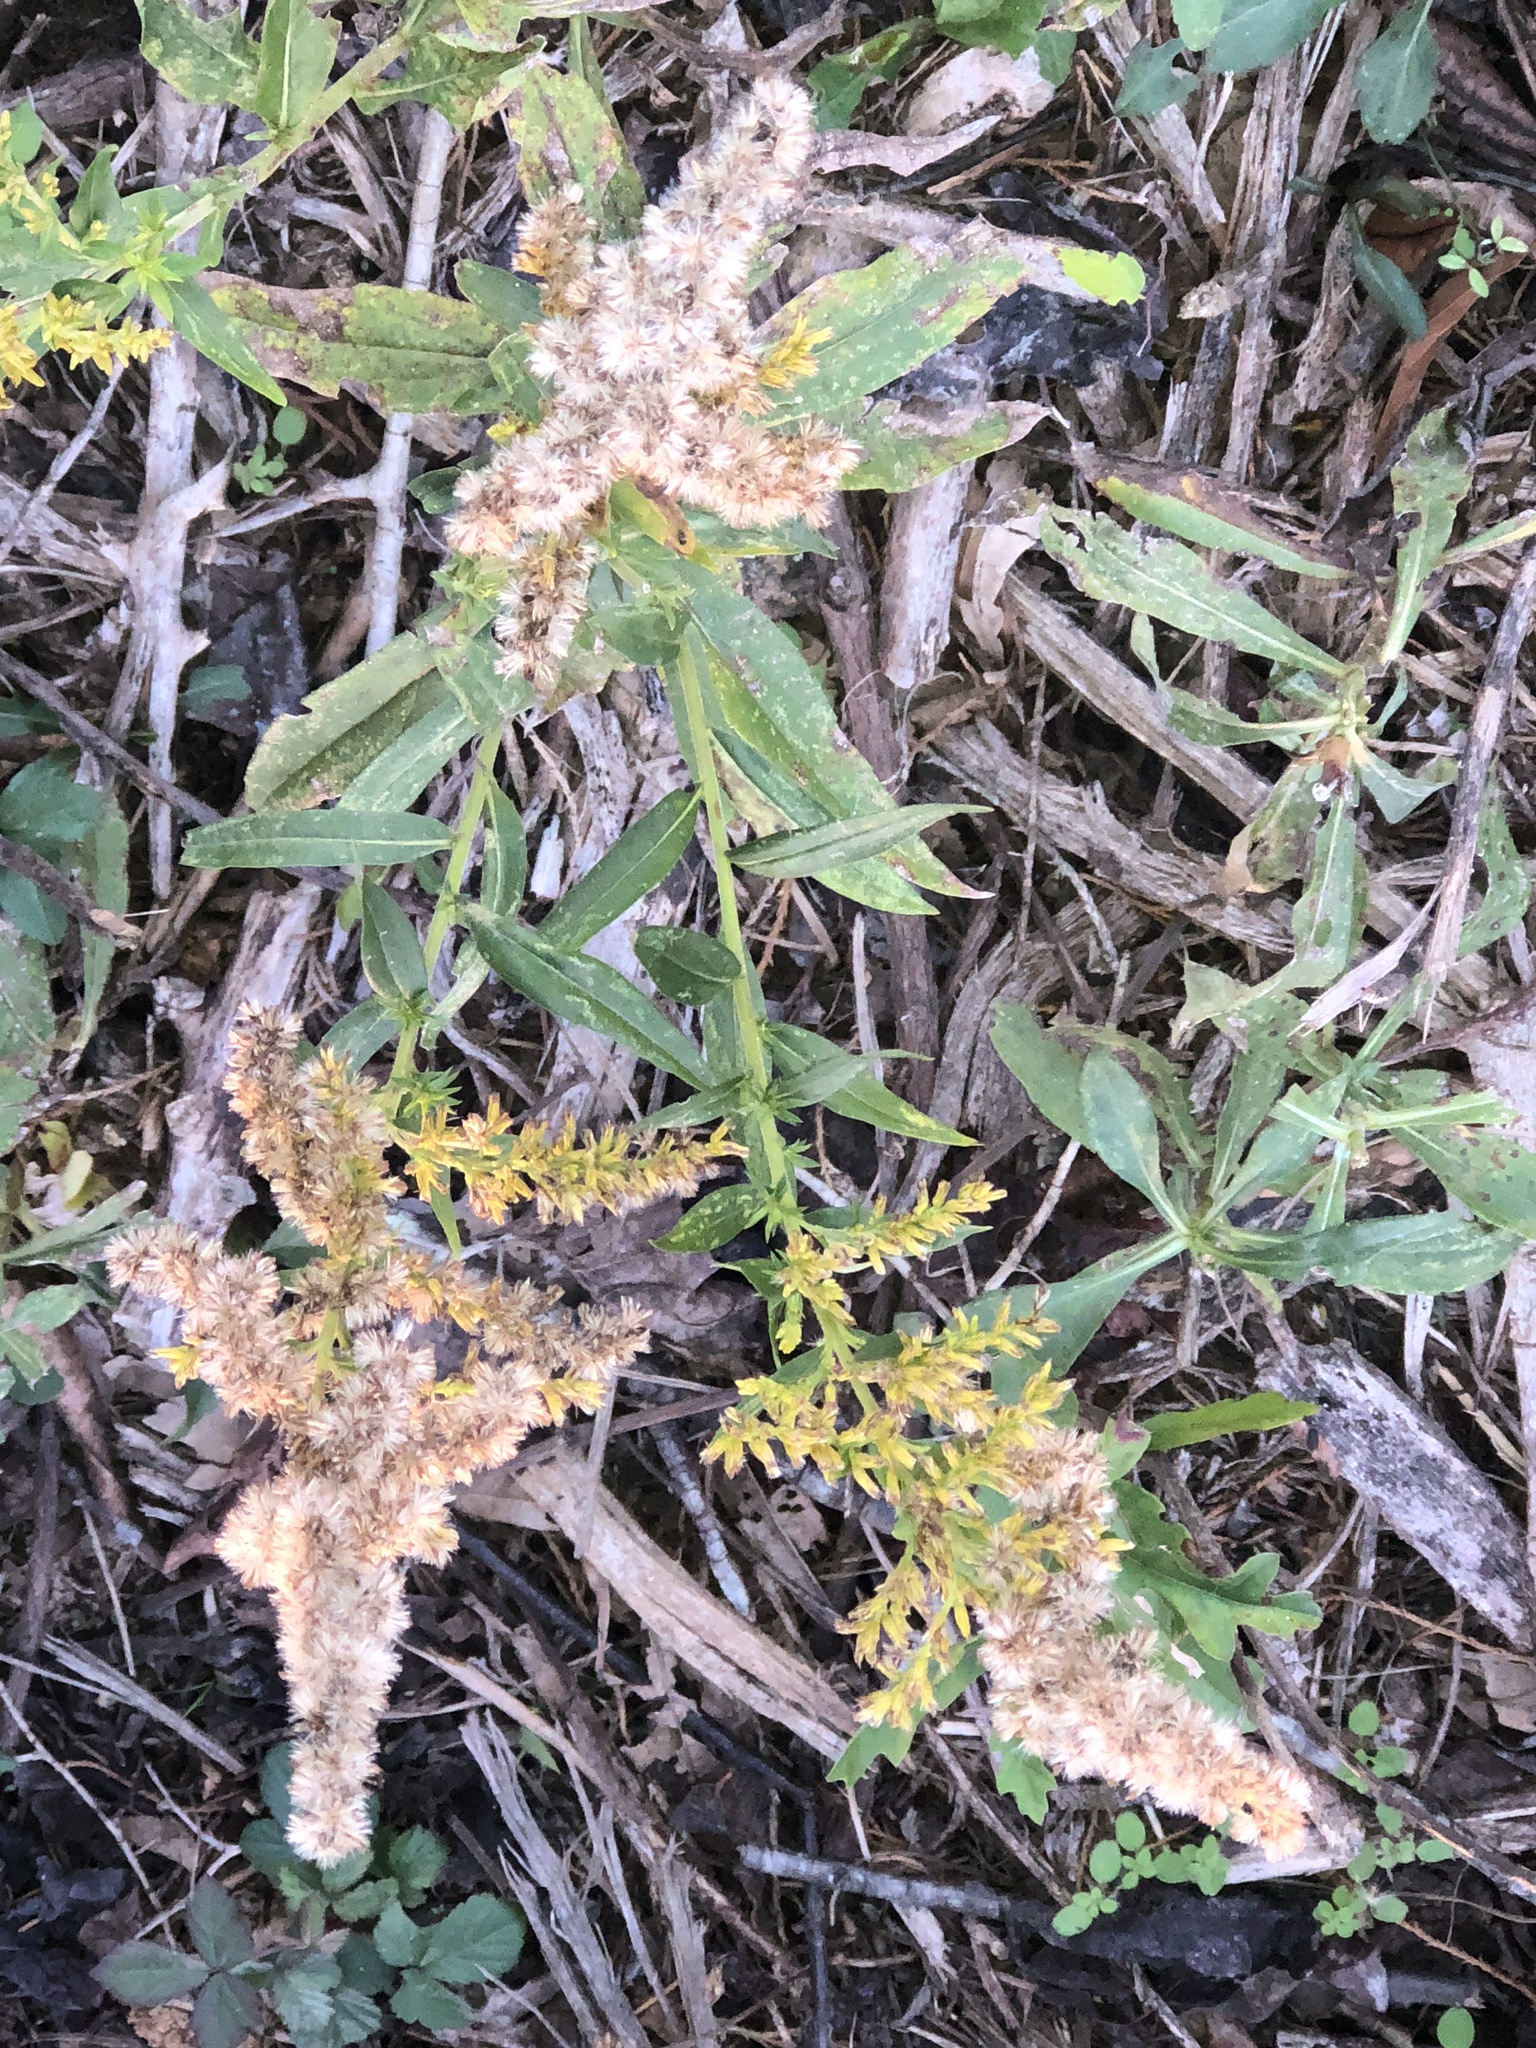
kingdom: Plantae
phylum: Tracheophyta
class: Magnoliopsida
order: Asterales
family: Asteraceae
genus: Solidago
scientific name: Solidago altissima
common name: Late goldenrod
